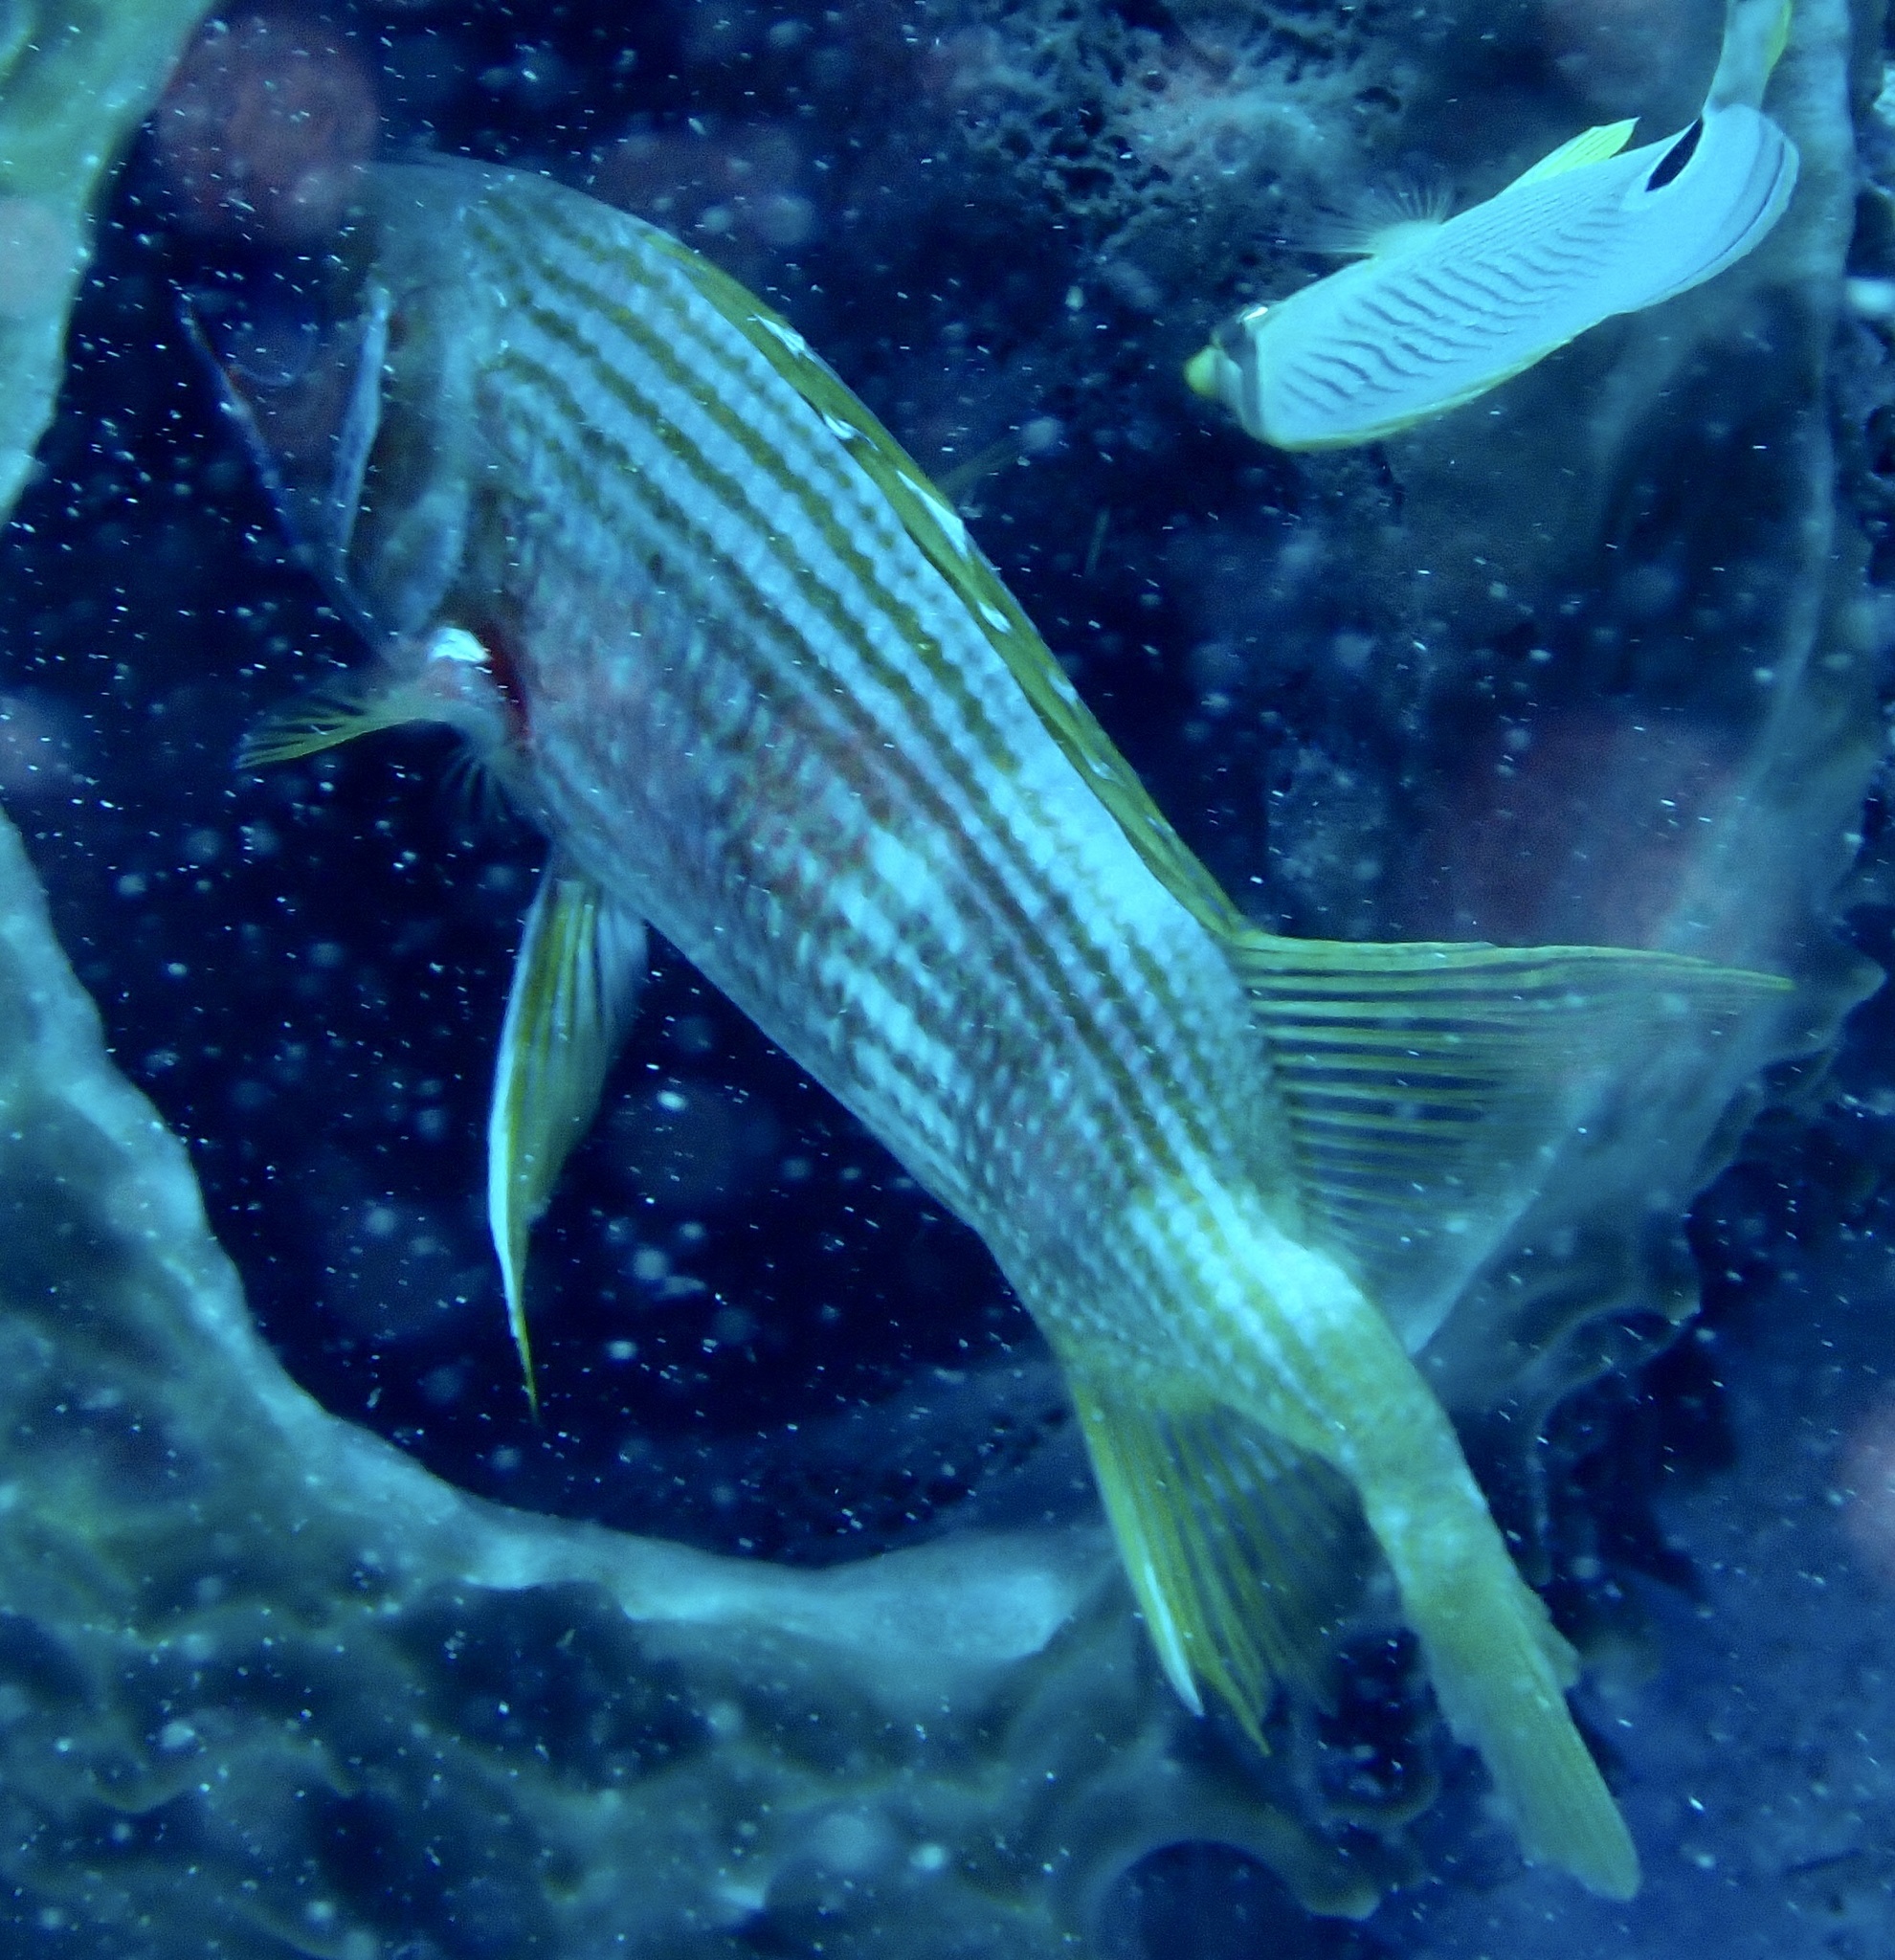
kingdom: Animalia
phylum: Chordata
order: Beryciformes
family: Holocentridae
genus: Holocentrus
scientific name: Holocentrus rufus
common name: Longspine squirrelfish
